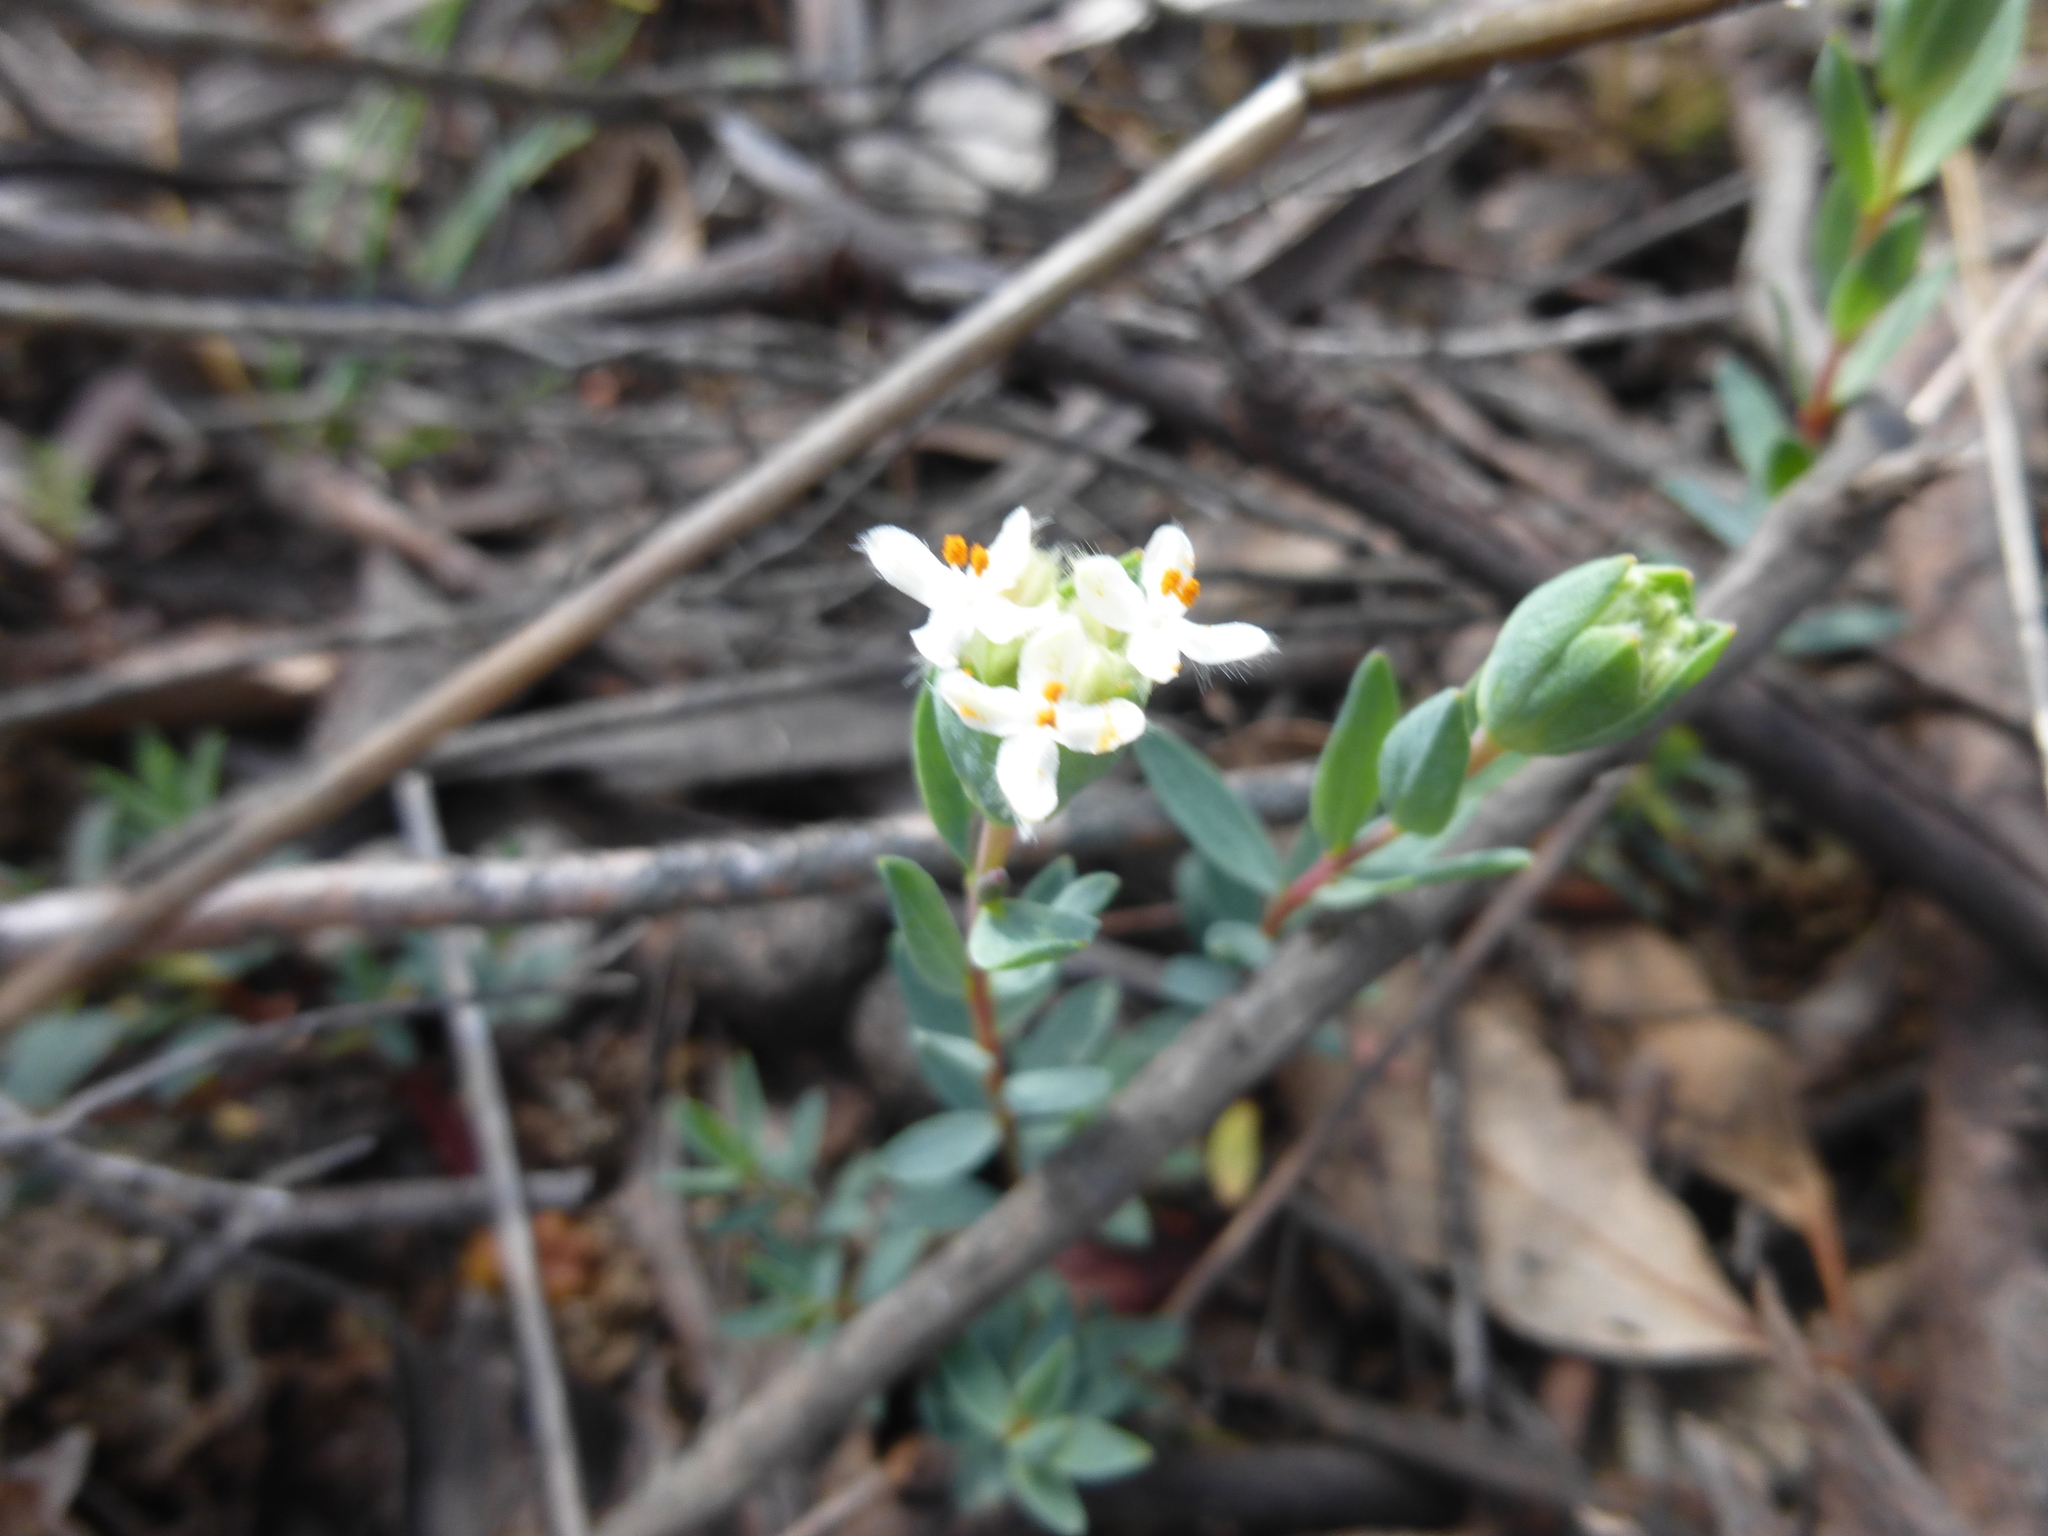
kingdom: Plantae
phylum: Tracheophyta
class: Magnoliopsida
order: Malvales
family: Thymelaeaceae
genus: Pimelea
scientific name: Pimelea humilis
